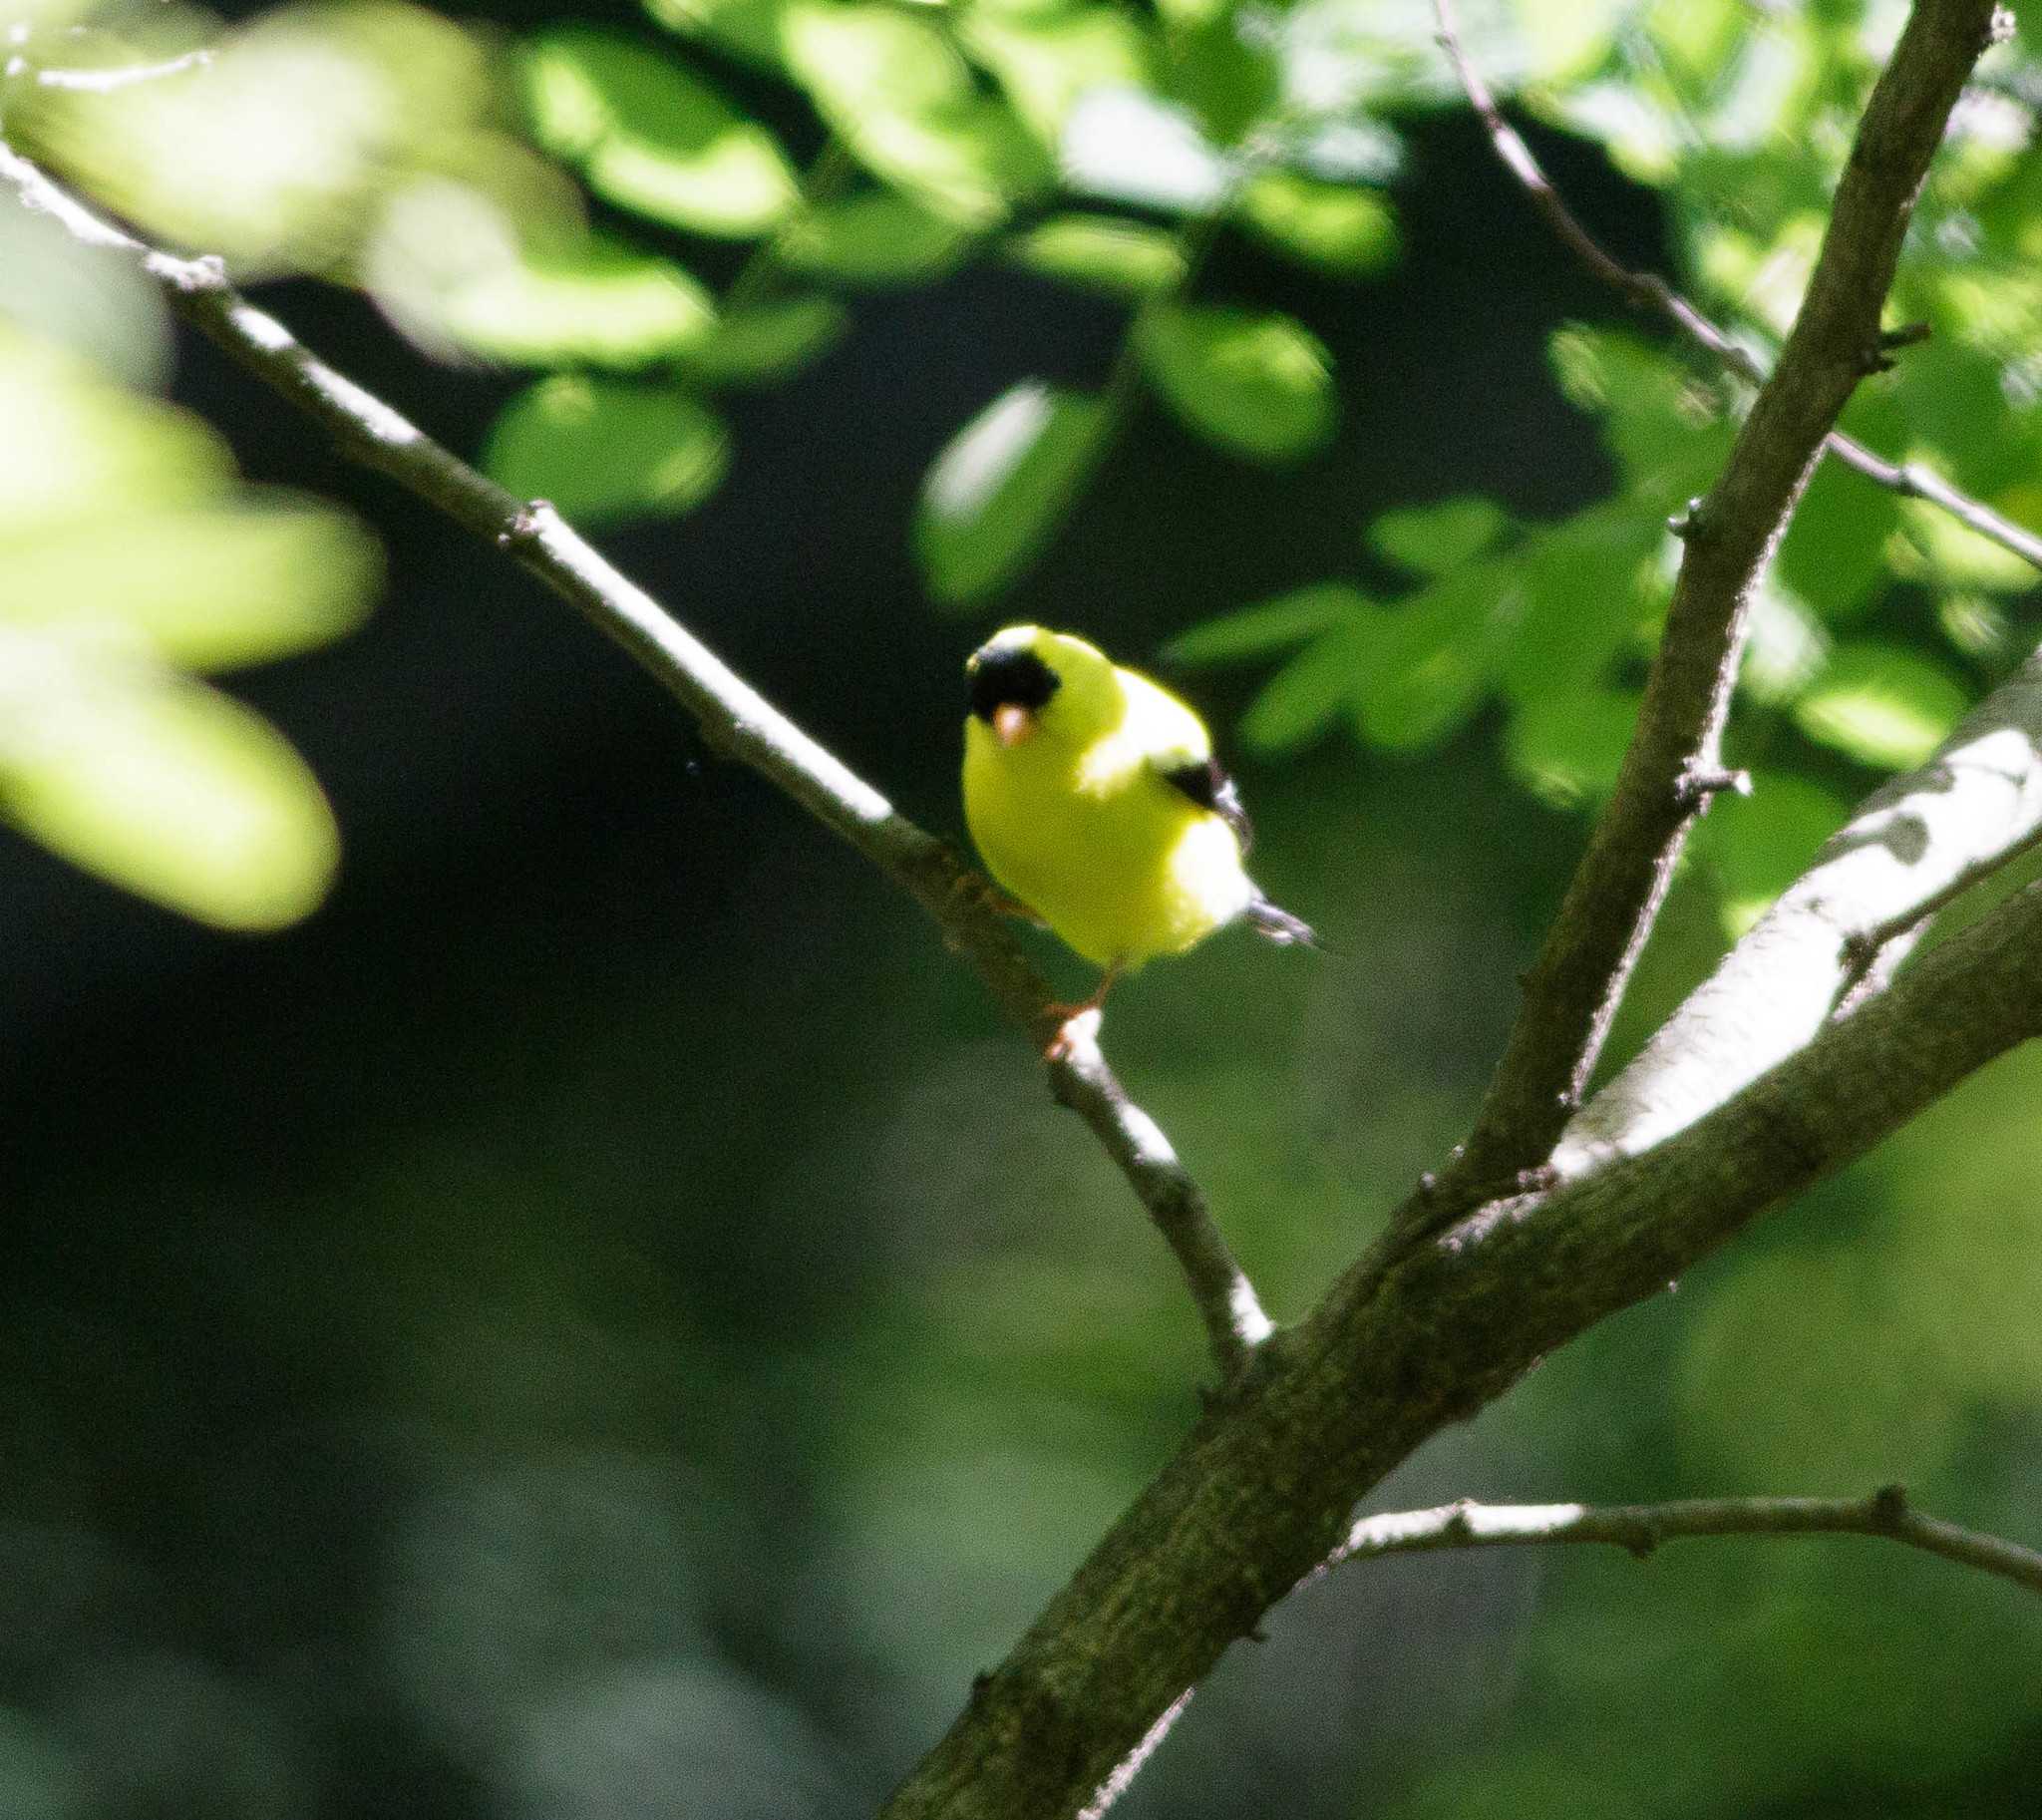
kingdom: Animalia
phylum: Chordata
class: Aves
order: Passeriformes
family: Fringillidae
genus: Spinus
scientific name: Spinus tristis
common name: American goldfinch
